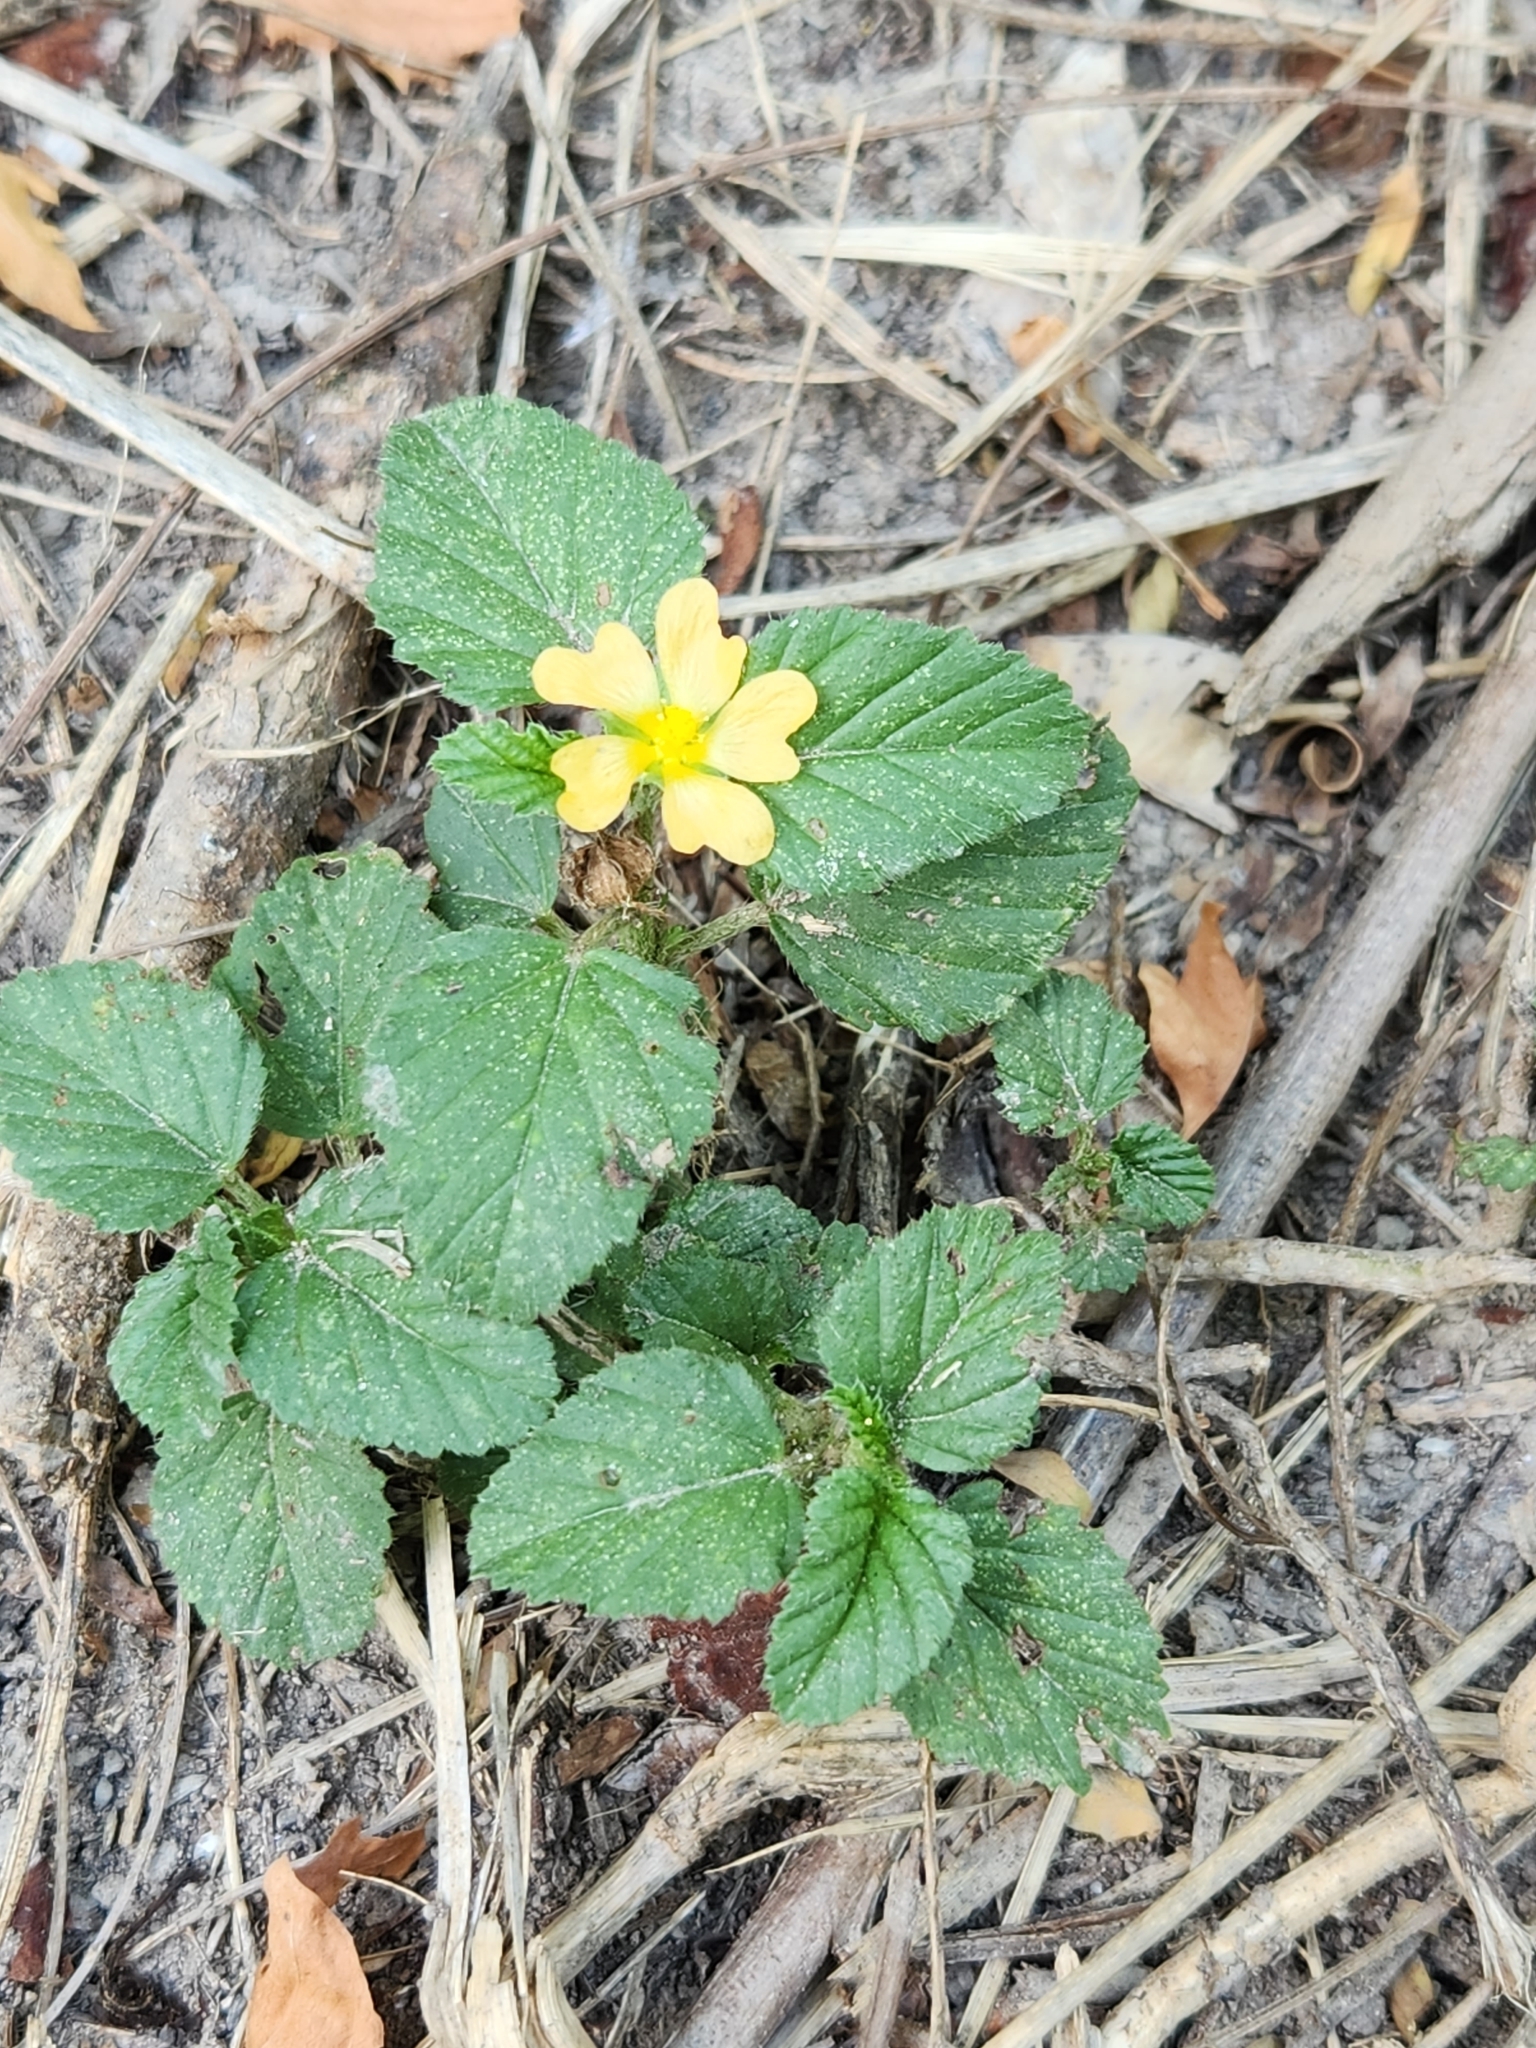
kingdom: Plantae
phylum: Tracheophyta
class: Magnoliopsida
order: Malvales
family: Malvaceae
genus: Malvastrum
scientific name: Malvastrum coromandelianum
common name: Threelobe false mallow
